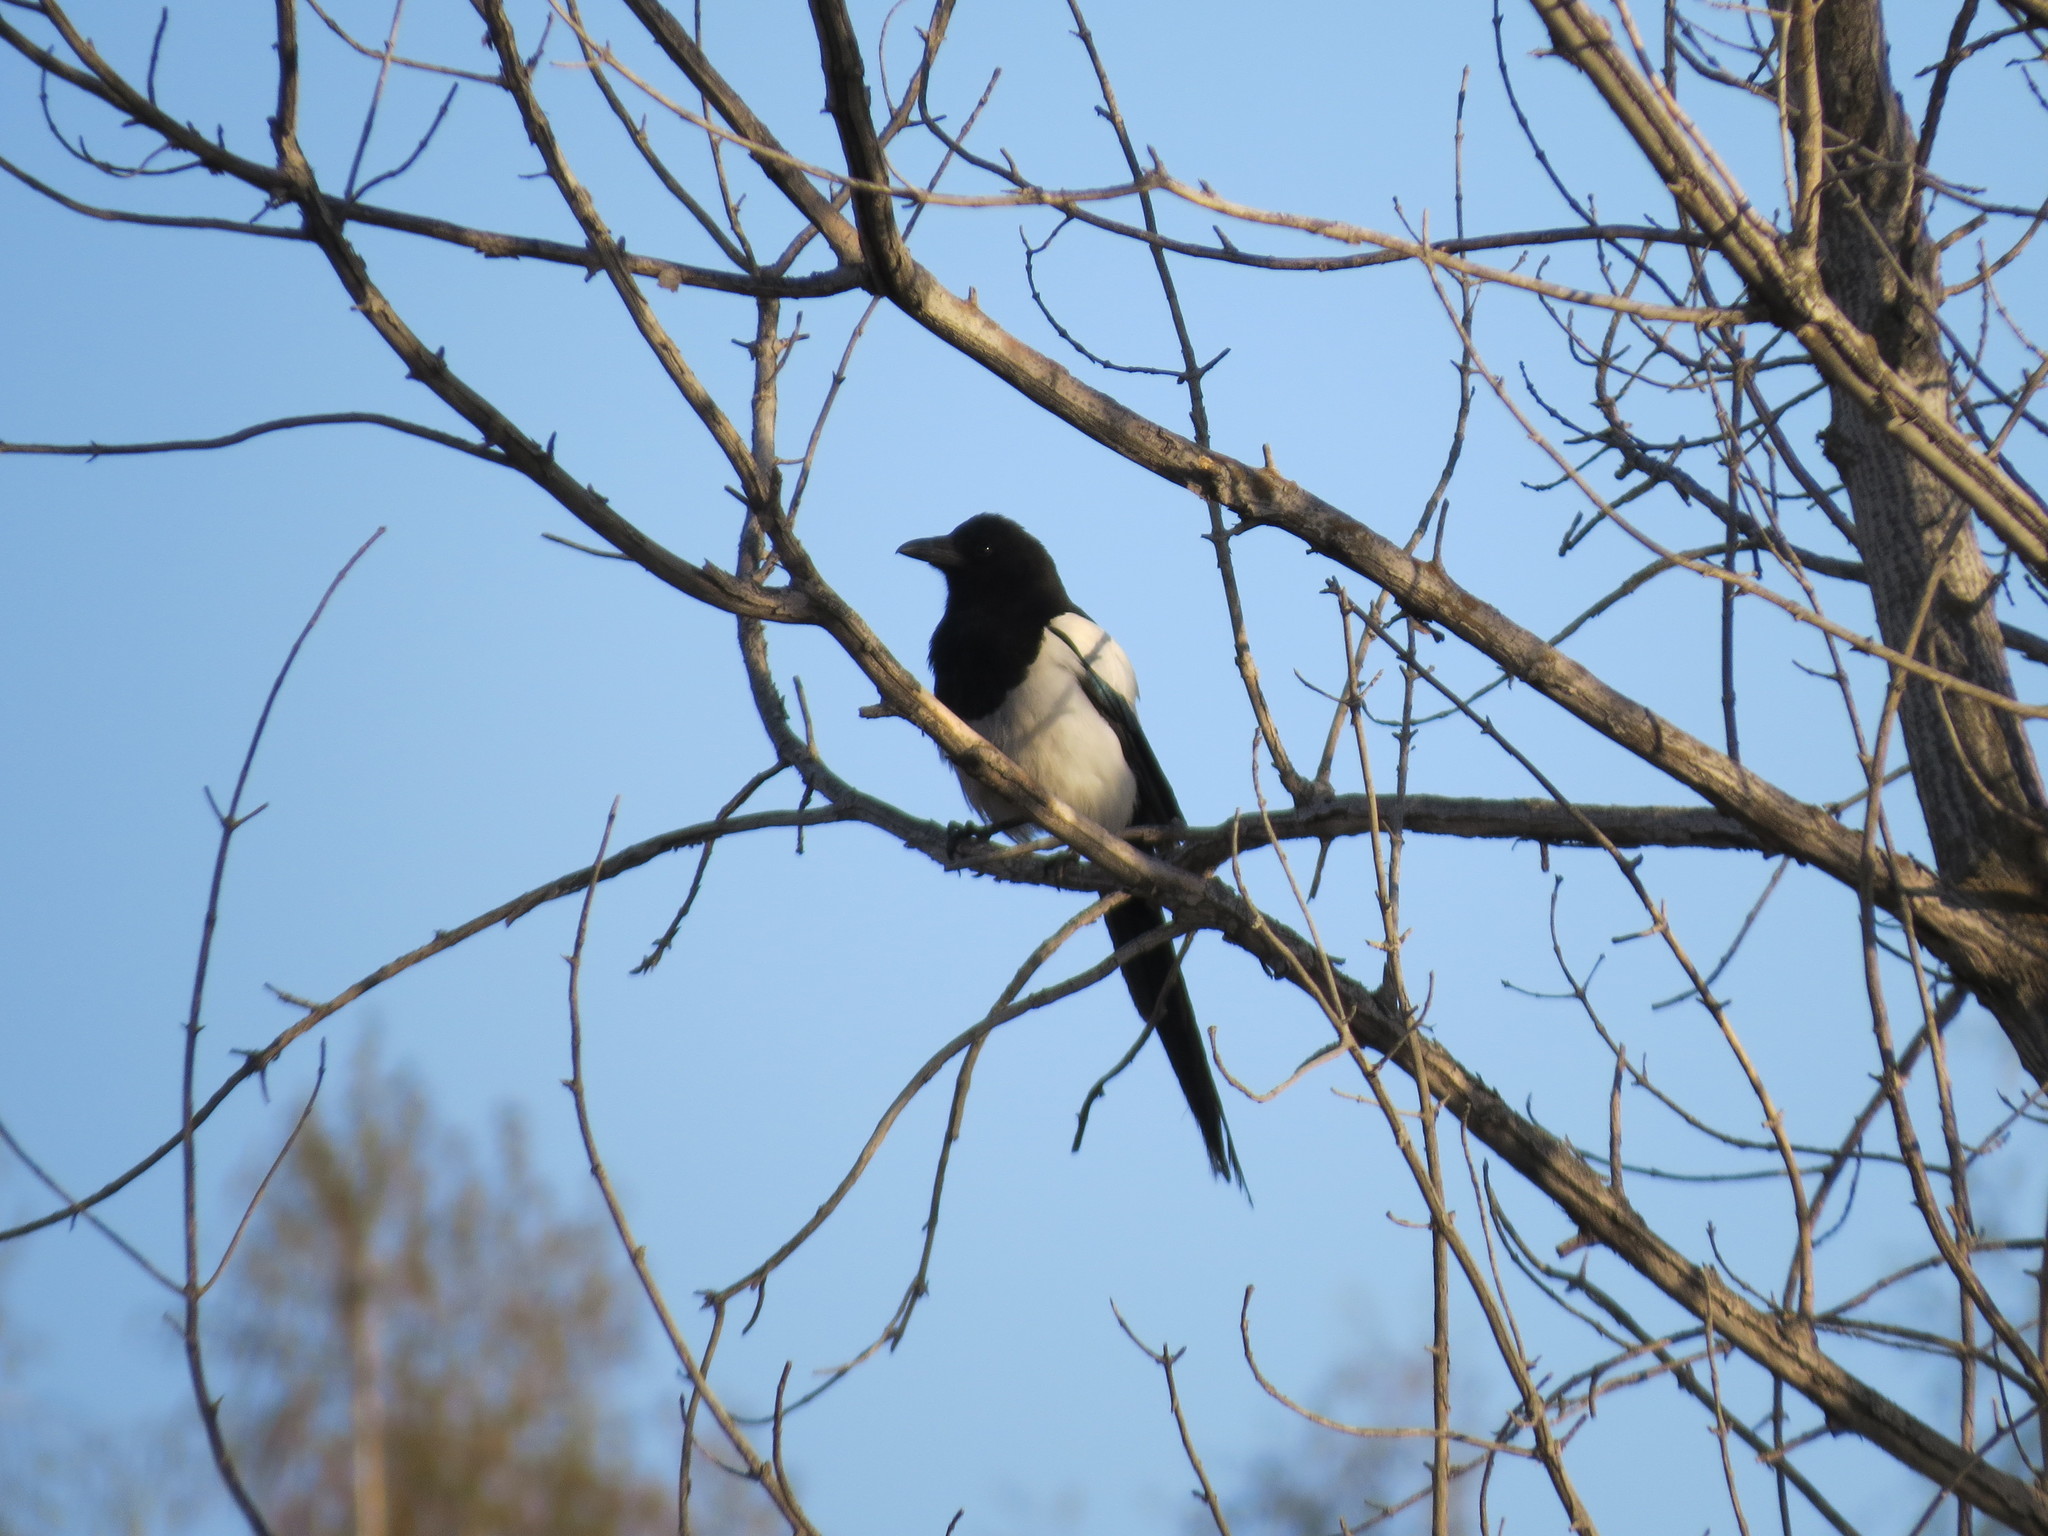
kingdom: Animalia
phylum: Chordata
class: Aves
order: Passeriformes
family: Corvidae
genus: Pica
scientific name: Pica pica
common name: Eurasian magpie
